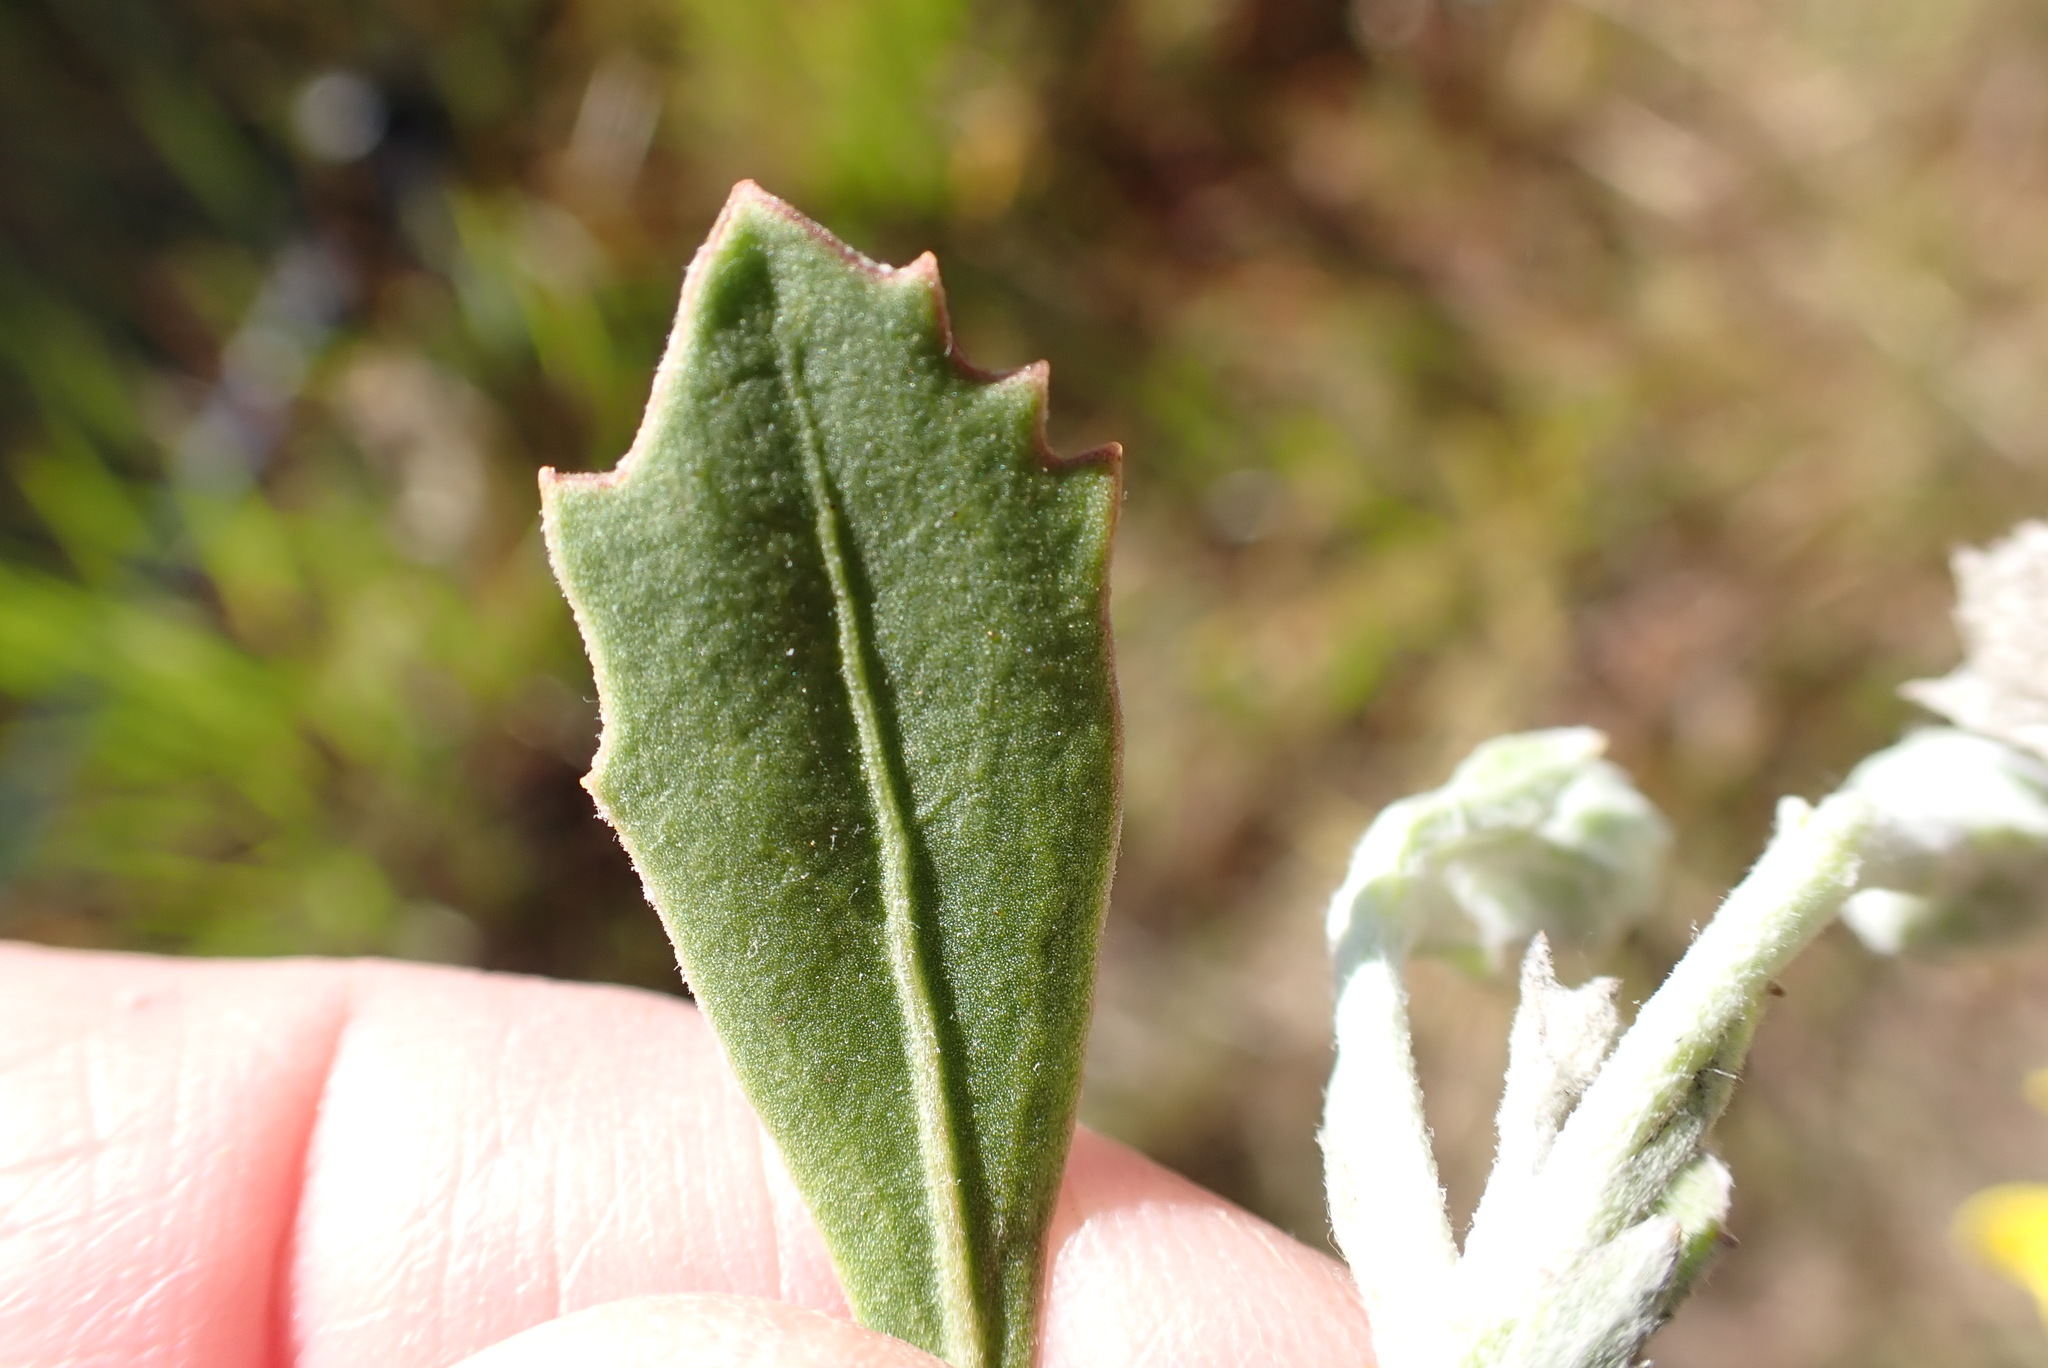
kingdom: Plantae
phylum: Tracheophyta
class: Magnoliopsida
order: Asterales
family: Asteraceae
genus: Osteospermum
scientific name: Osteospermum moniliferum
